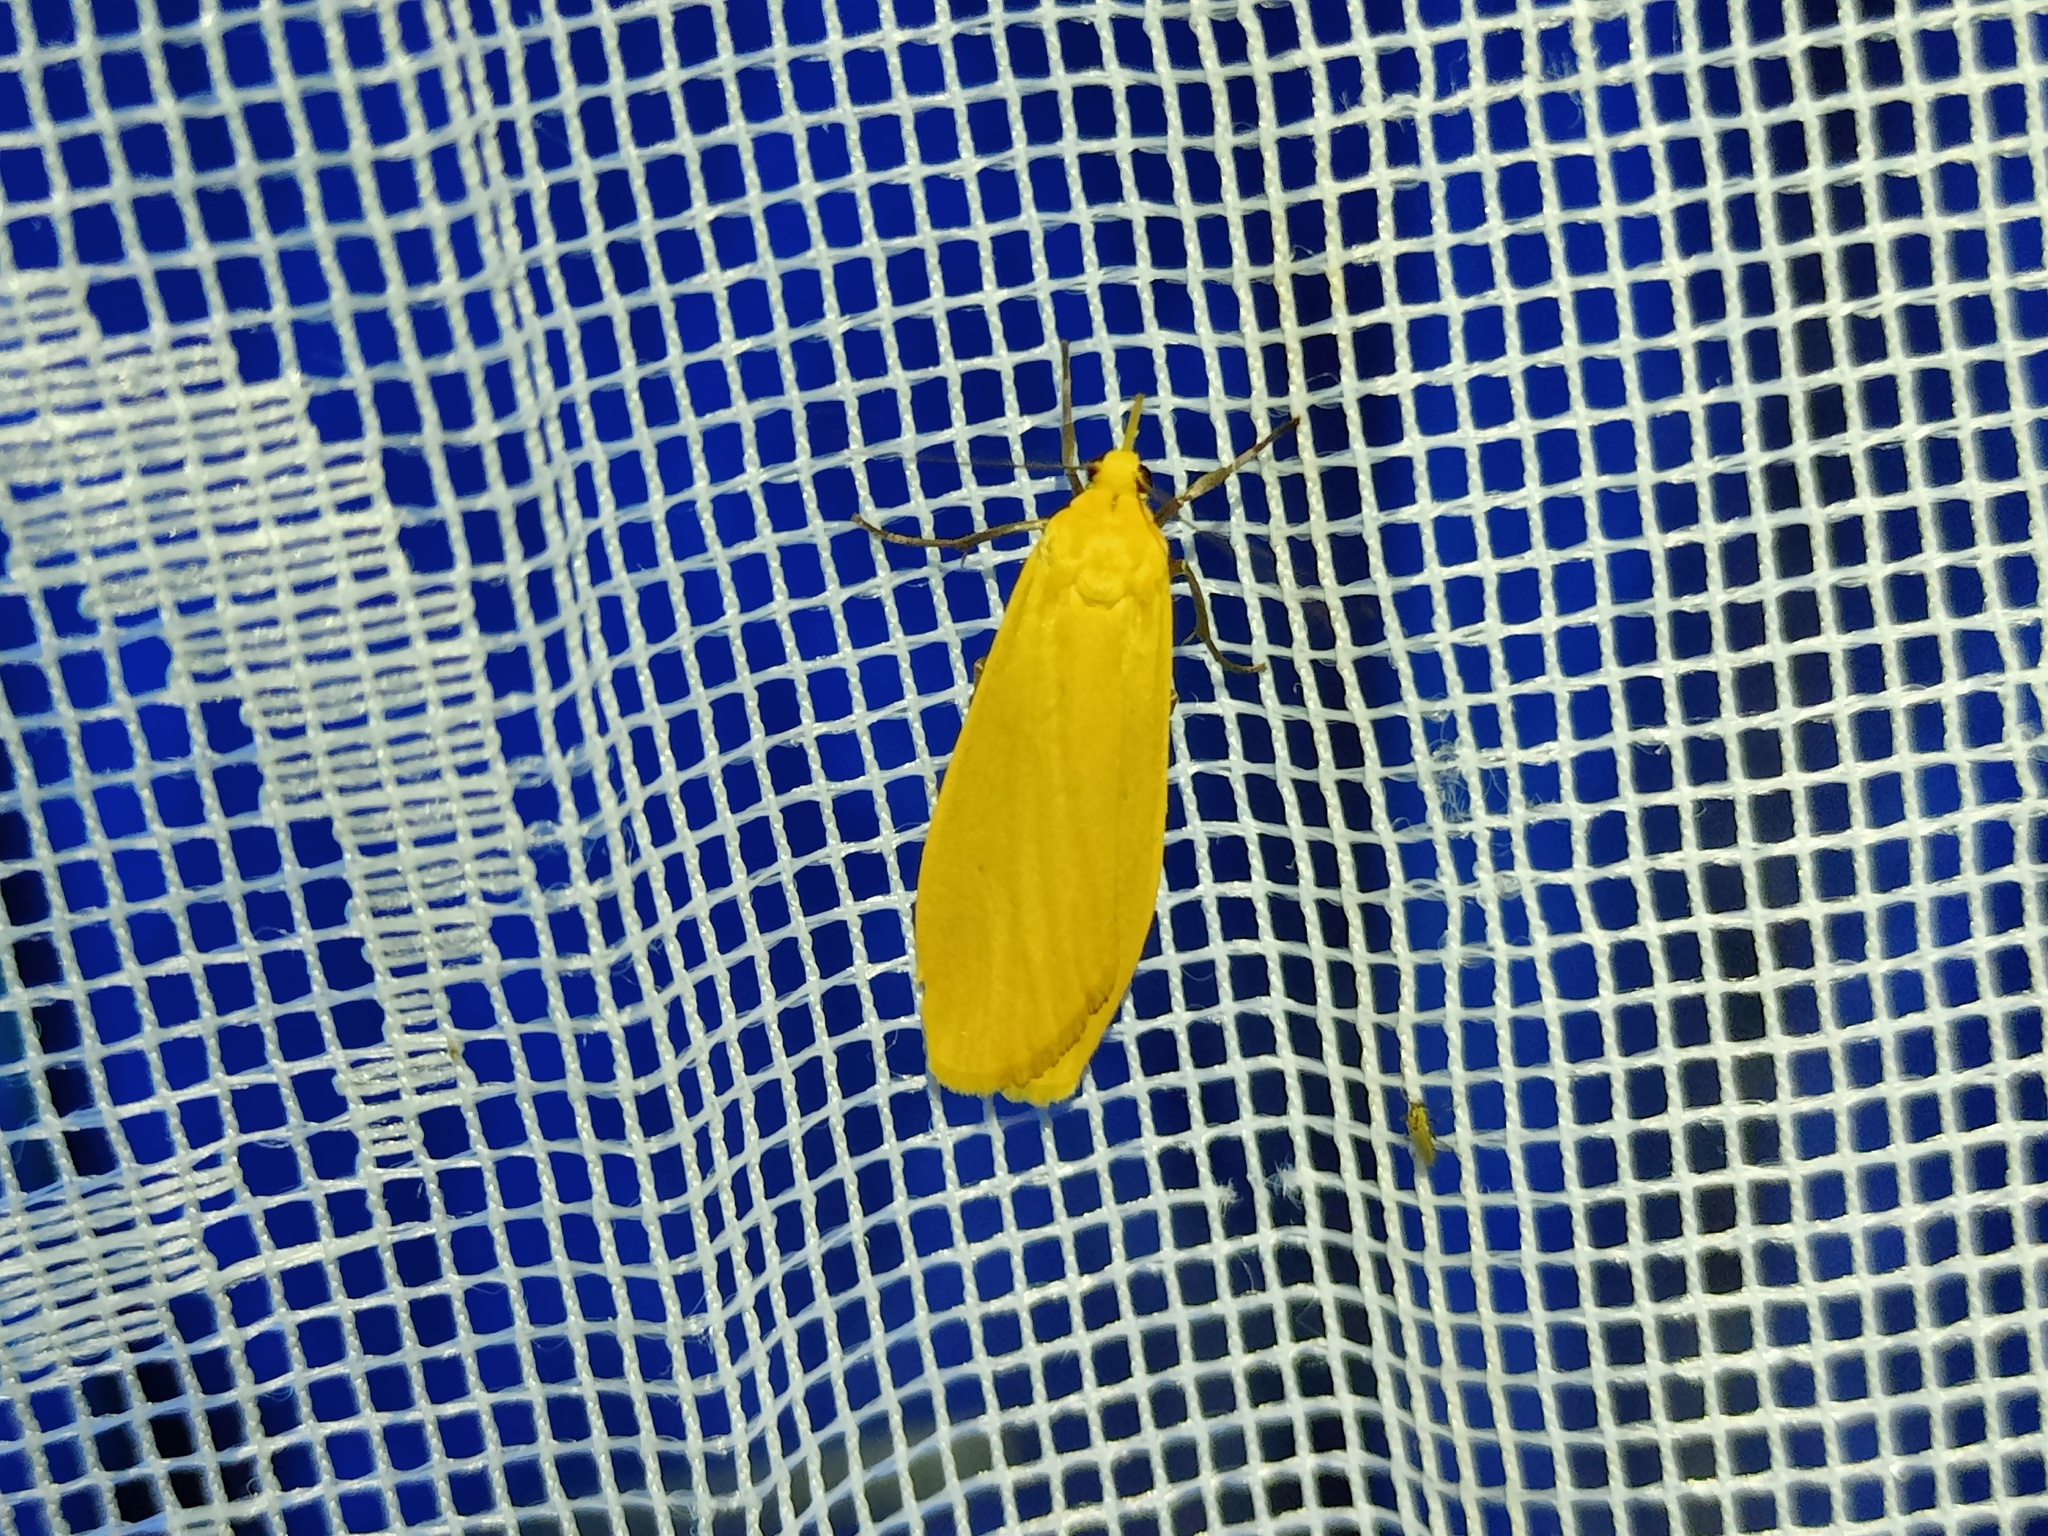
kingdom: Animalia
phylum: Arthropoda
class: Insecta
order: Lepidoptera
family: Erebidae
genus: Wittia
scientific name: Wittia sororcula
